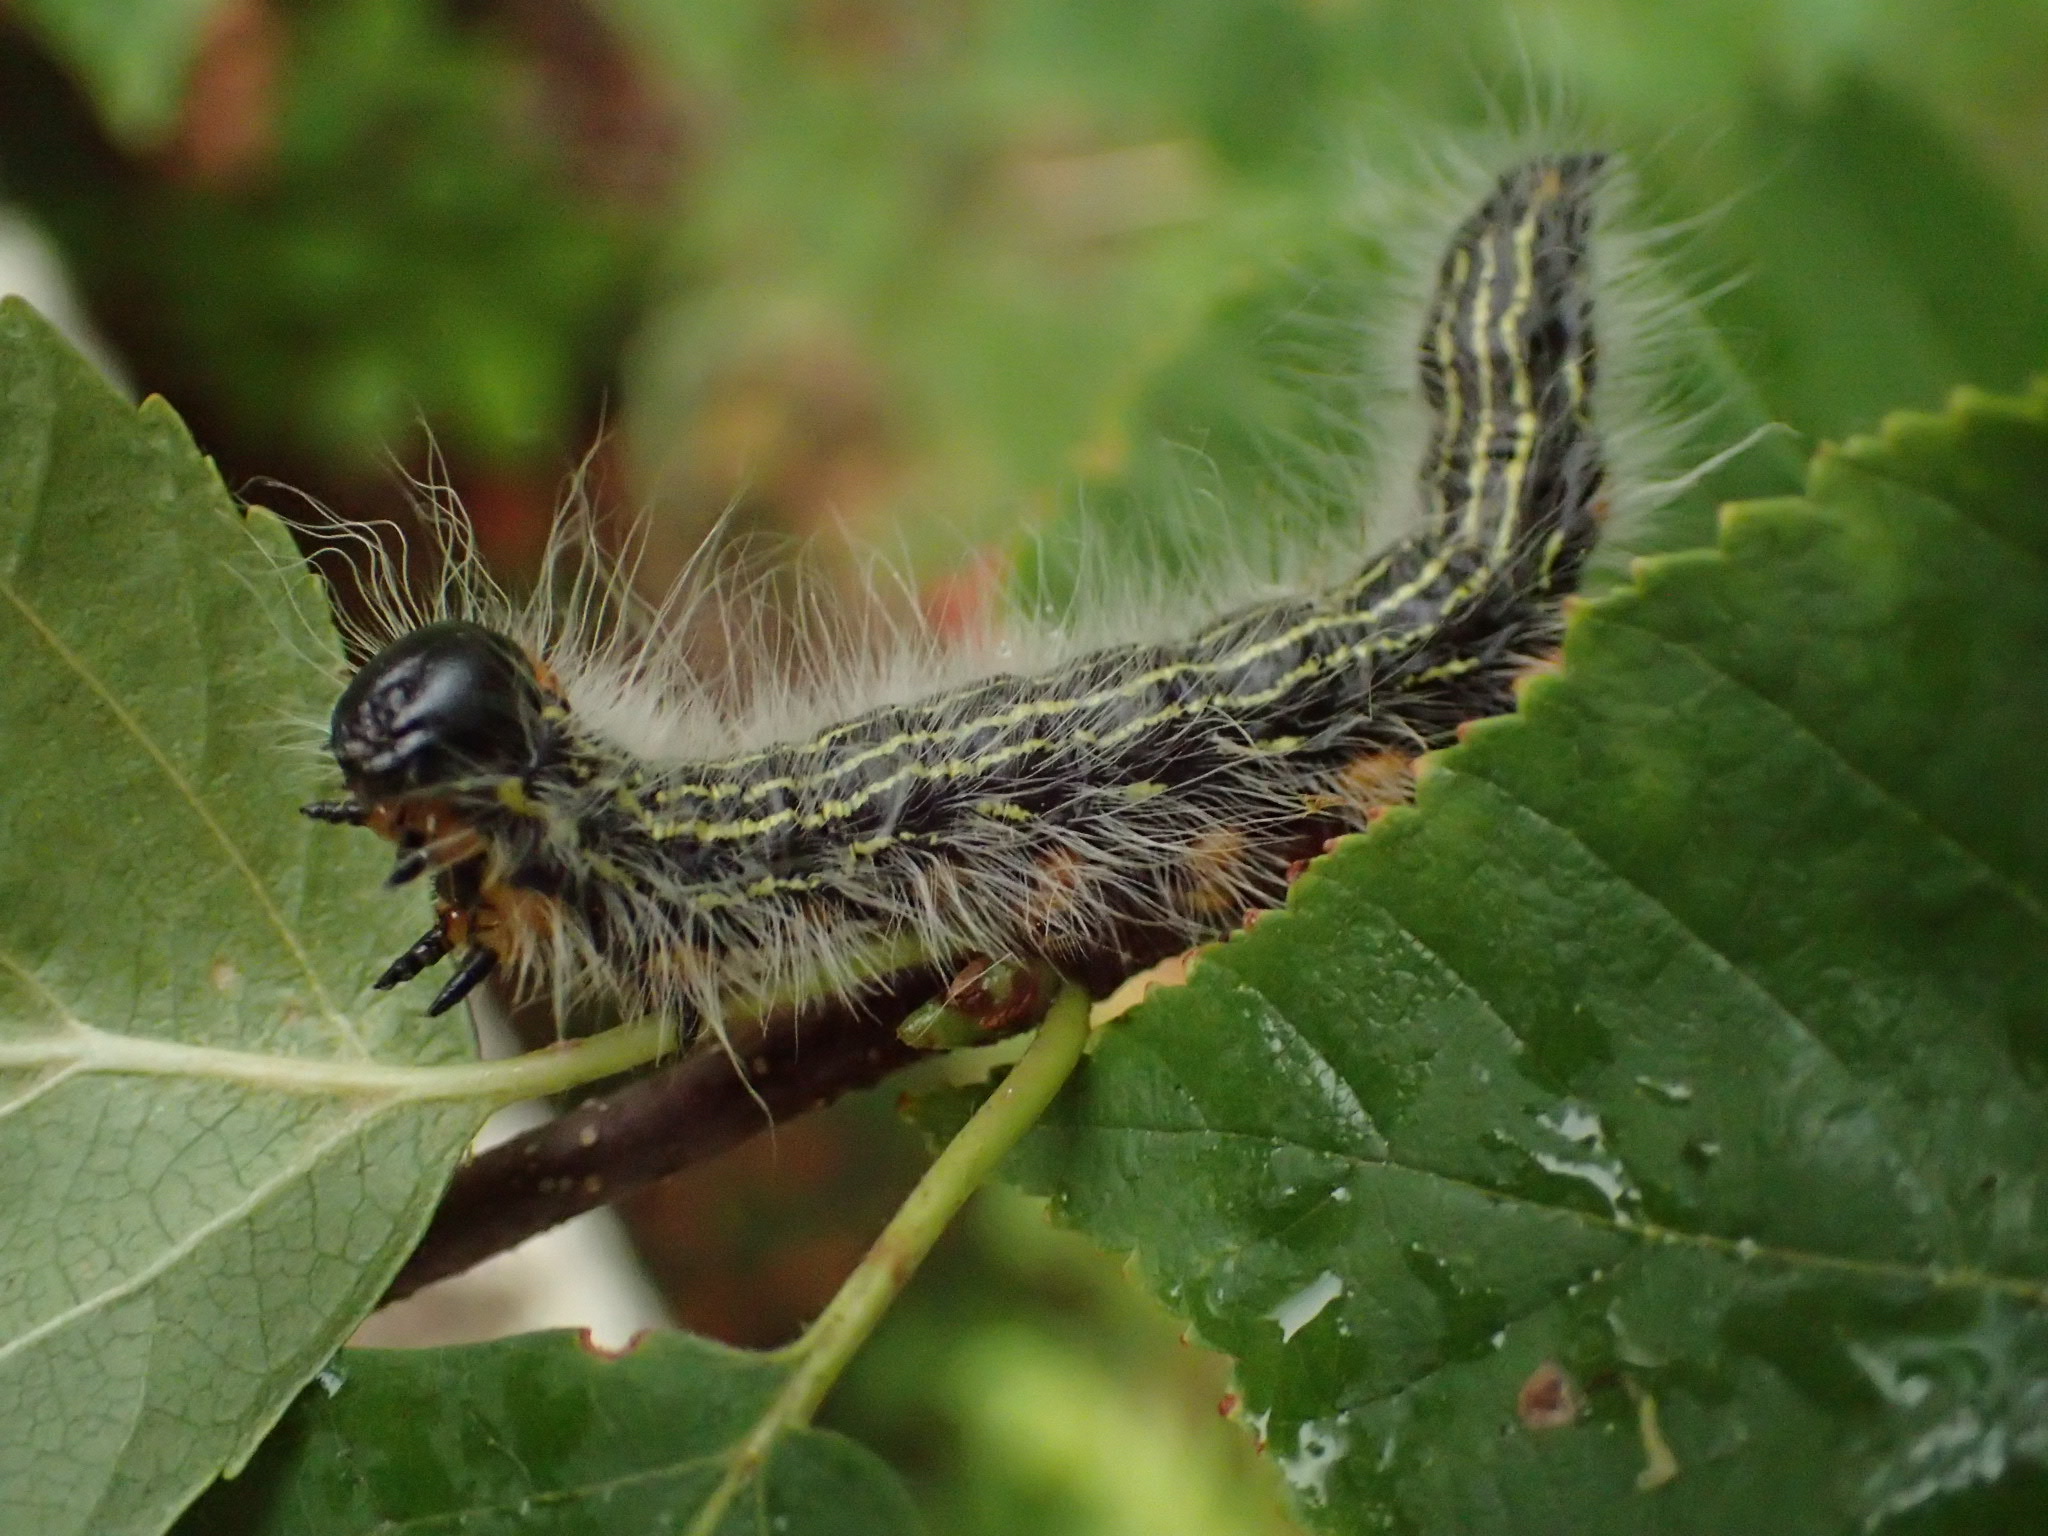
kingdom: Animalia
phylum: Arthropoda
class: Insecta
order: Lepidoptera
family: Notodontidae
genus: Datana
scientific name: Datana ministra
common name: Yellow-necked caterpillar moth
